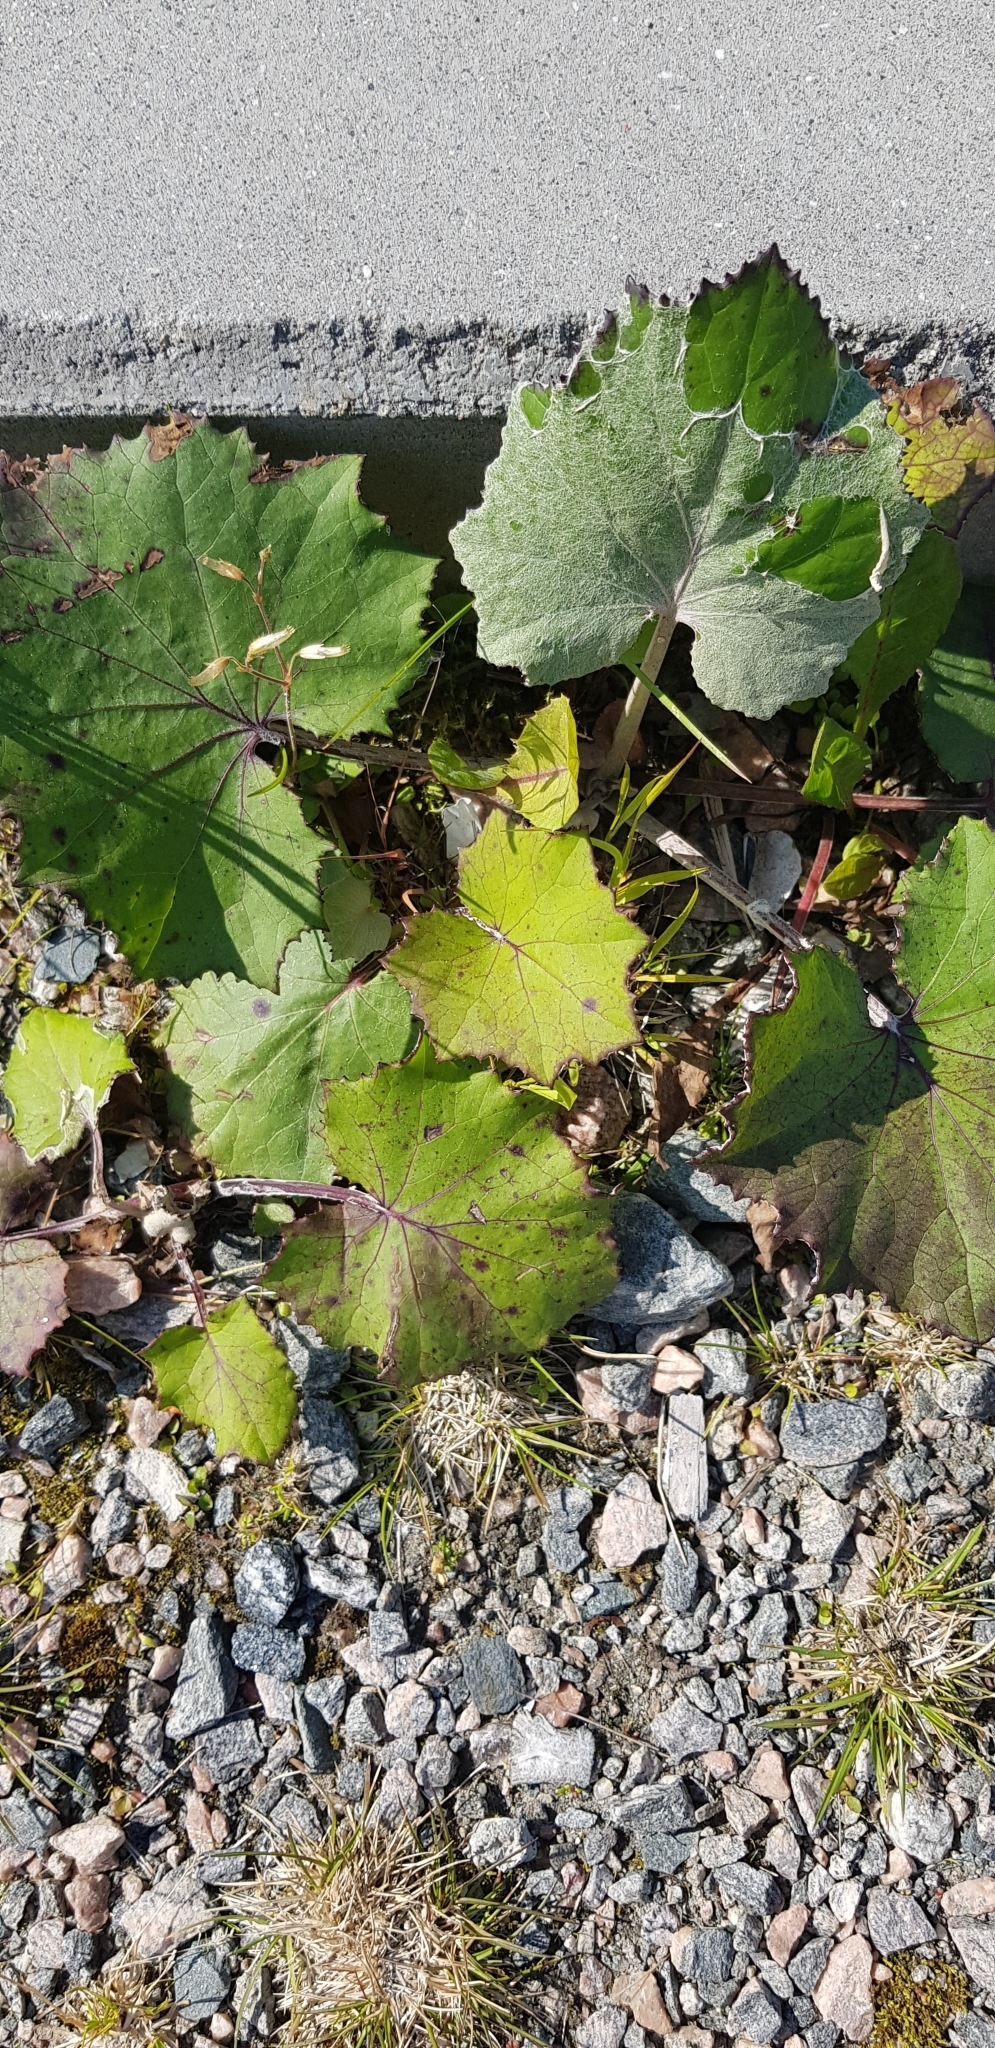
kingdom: Plantae
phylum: Tracheophyta
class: Magnoliopsida
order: Asterales
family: Asteraceae
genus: Tussilago
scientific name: Tussilago farfara
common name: Coltsfoot
